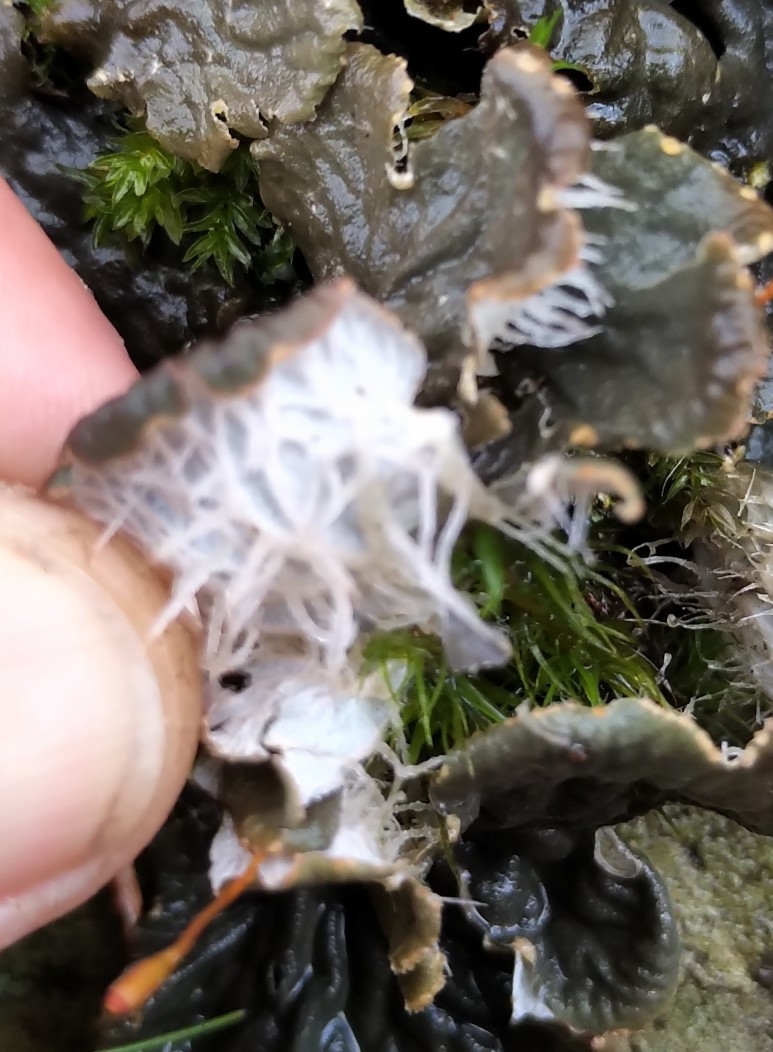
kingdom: Fungi
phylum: Ascomycota
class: Lecanoromycetes
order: Peltigerales
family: Peltigeraceae
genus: Peltigera
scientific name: Peltigera membranacea
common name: Membranous pelt lichen
